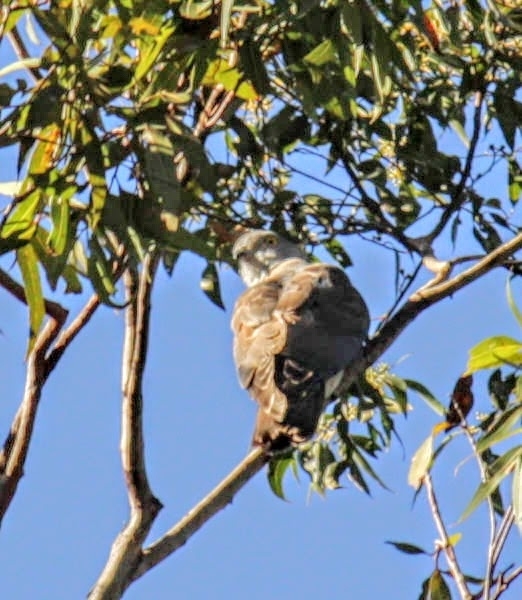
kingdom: Animalia
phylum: Chordata
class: Aves
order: Accipitriformes
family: Accipitridae
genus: Aviceda
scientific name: Aviceda subcristata
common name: Pacific baza
